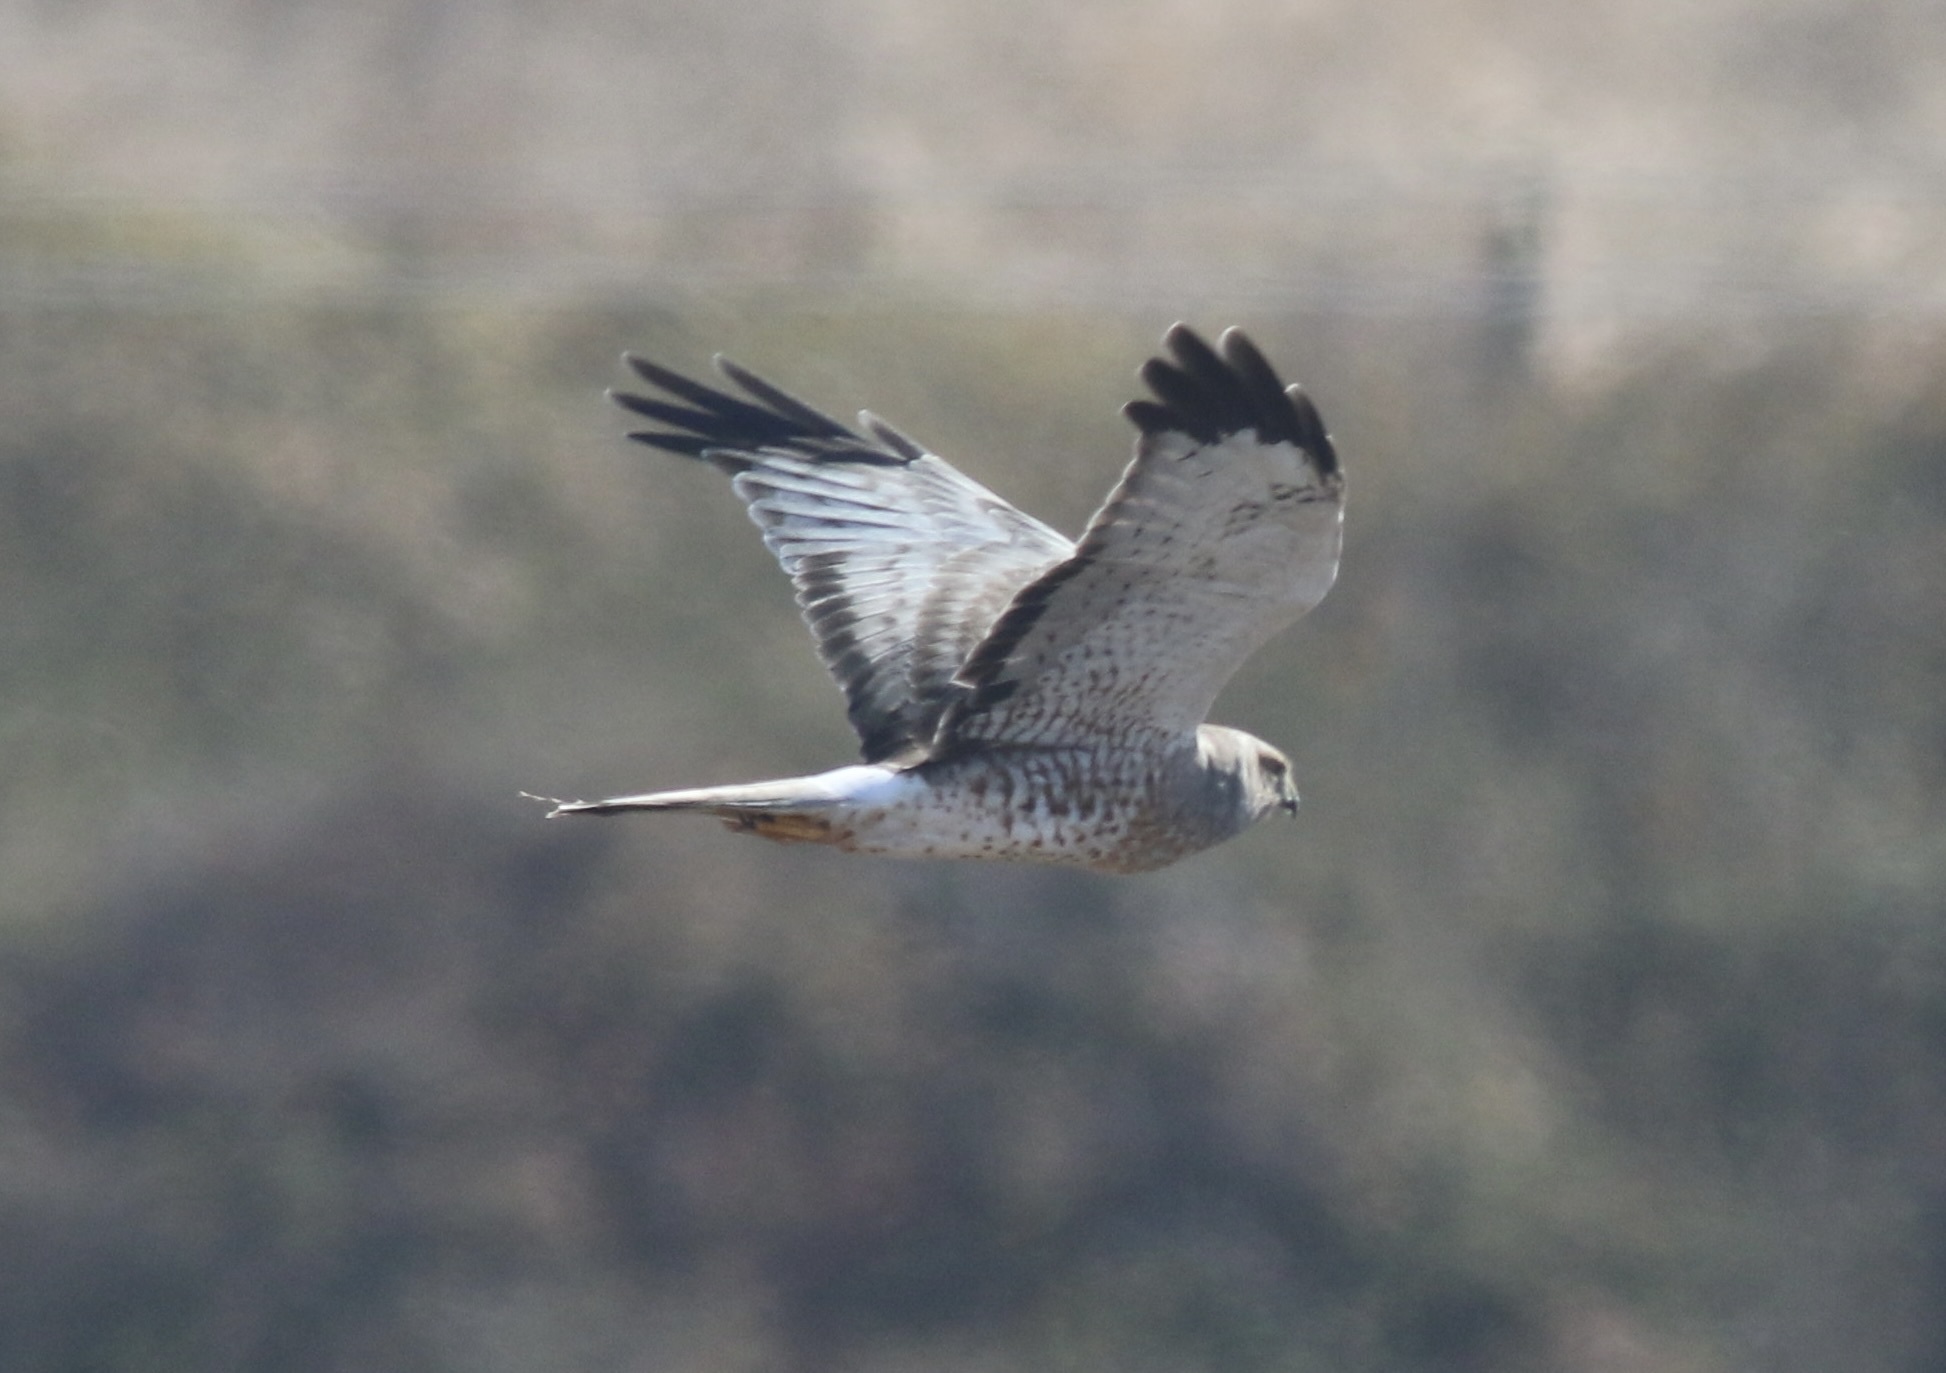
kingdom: Animalia
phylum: Chordata
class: Aves
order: Accipitriformes
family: Accipitridae
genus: Circus
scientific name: Circus cyaneus
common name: Hen harrier
